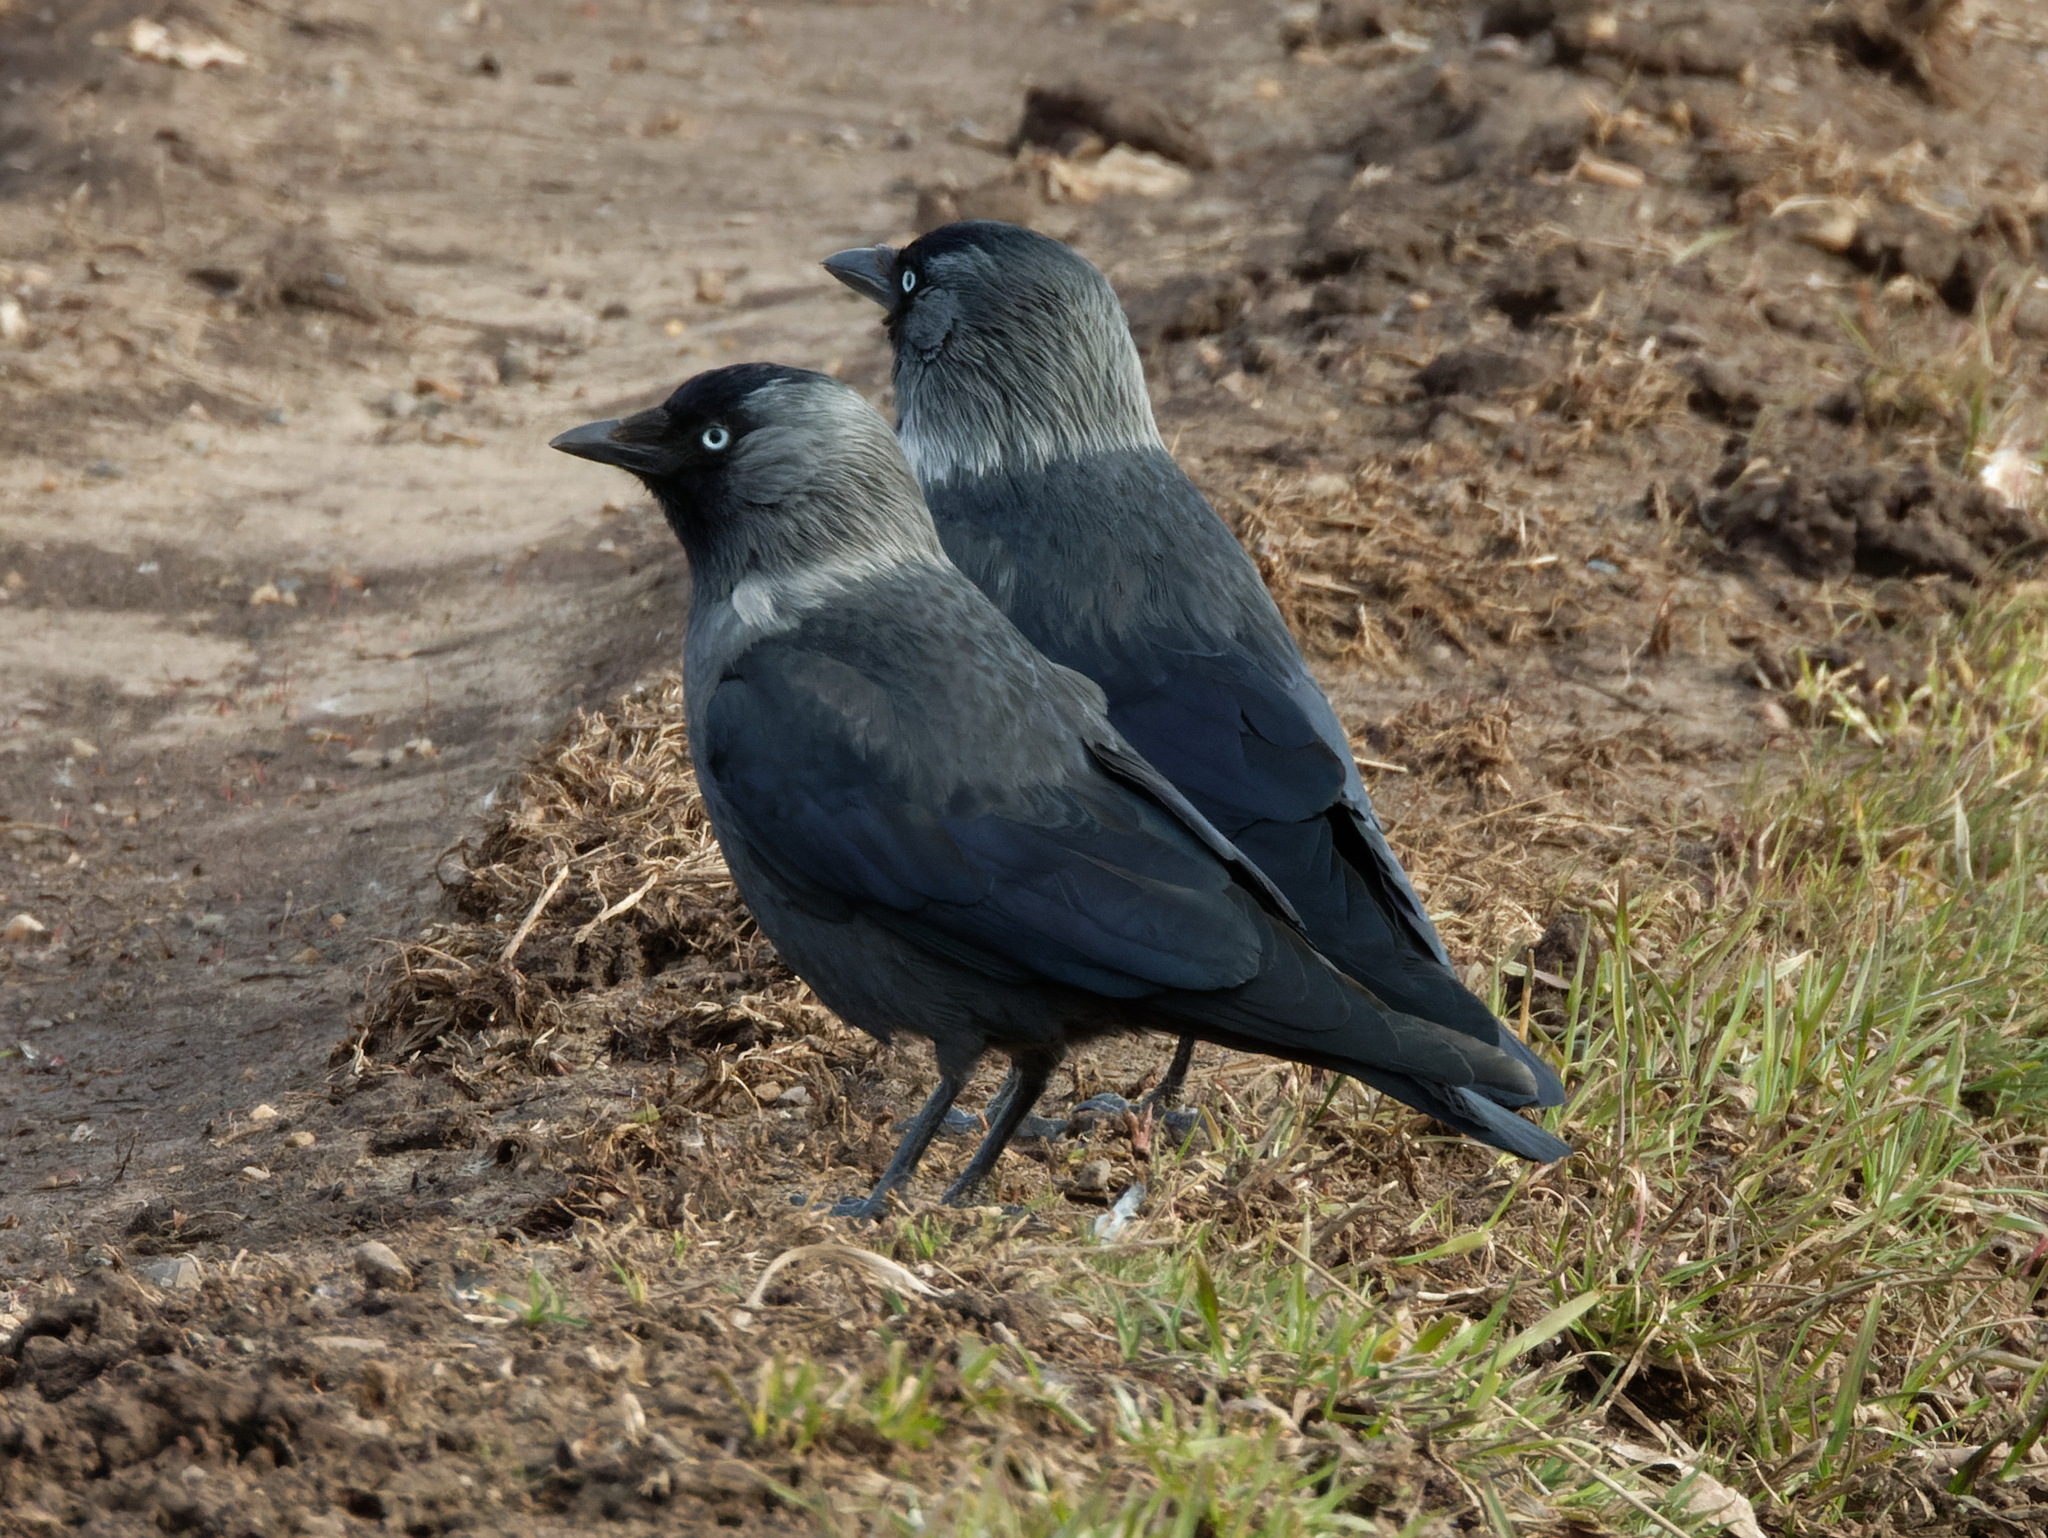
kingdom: Animalia
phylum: Chordata
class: Aves
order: Passeriformes
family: Corvidae
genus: Coloeus
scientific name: Coloeus monedula
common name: Western jackdaw
